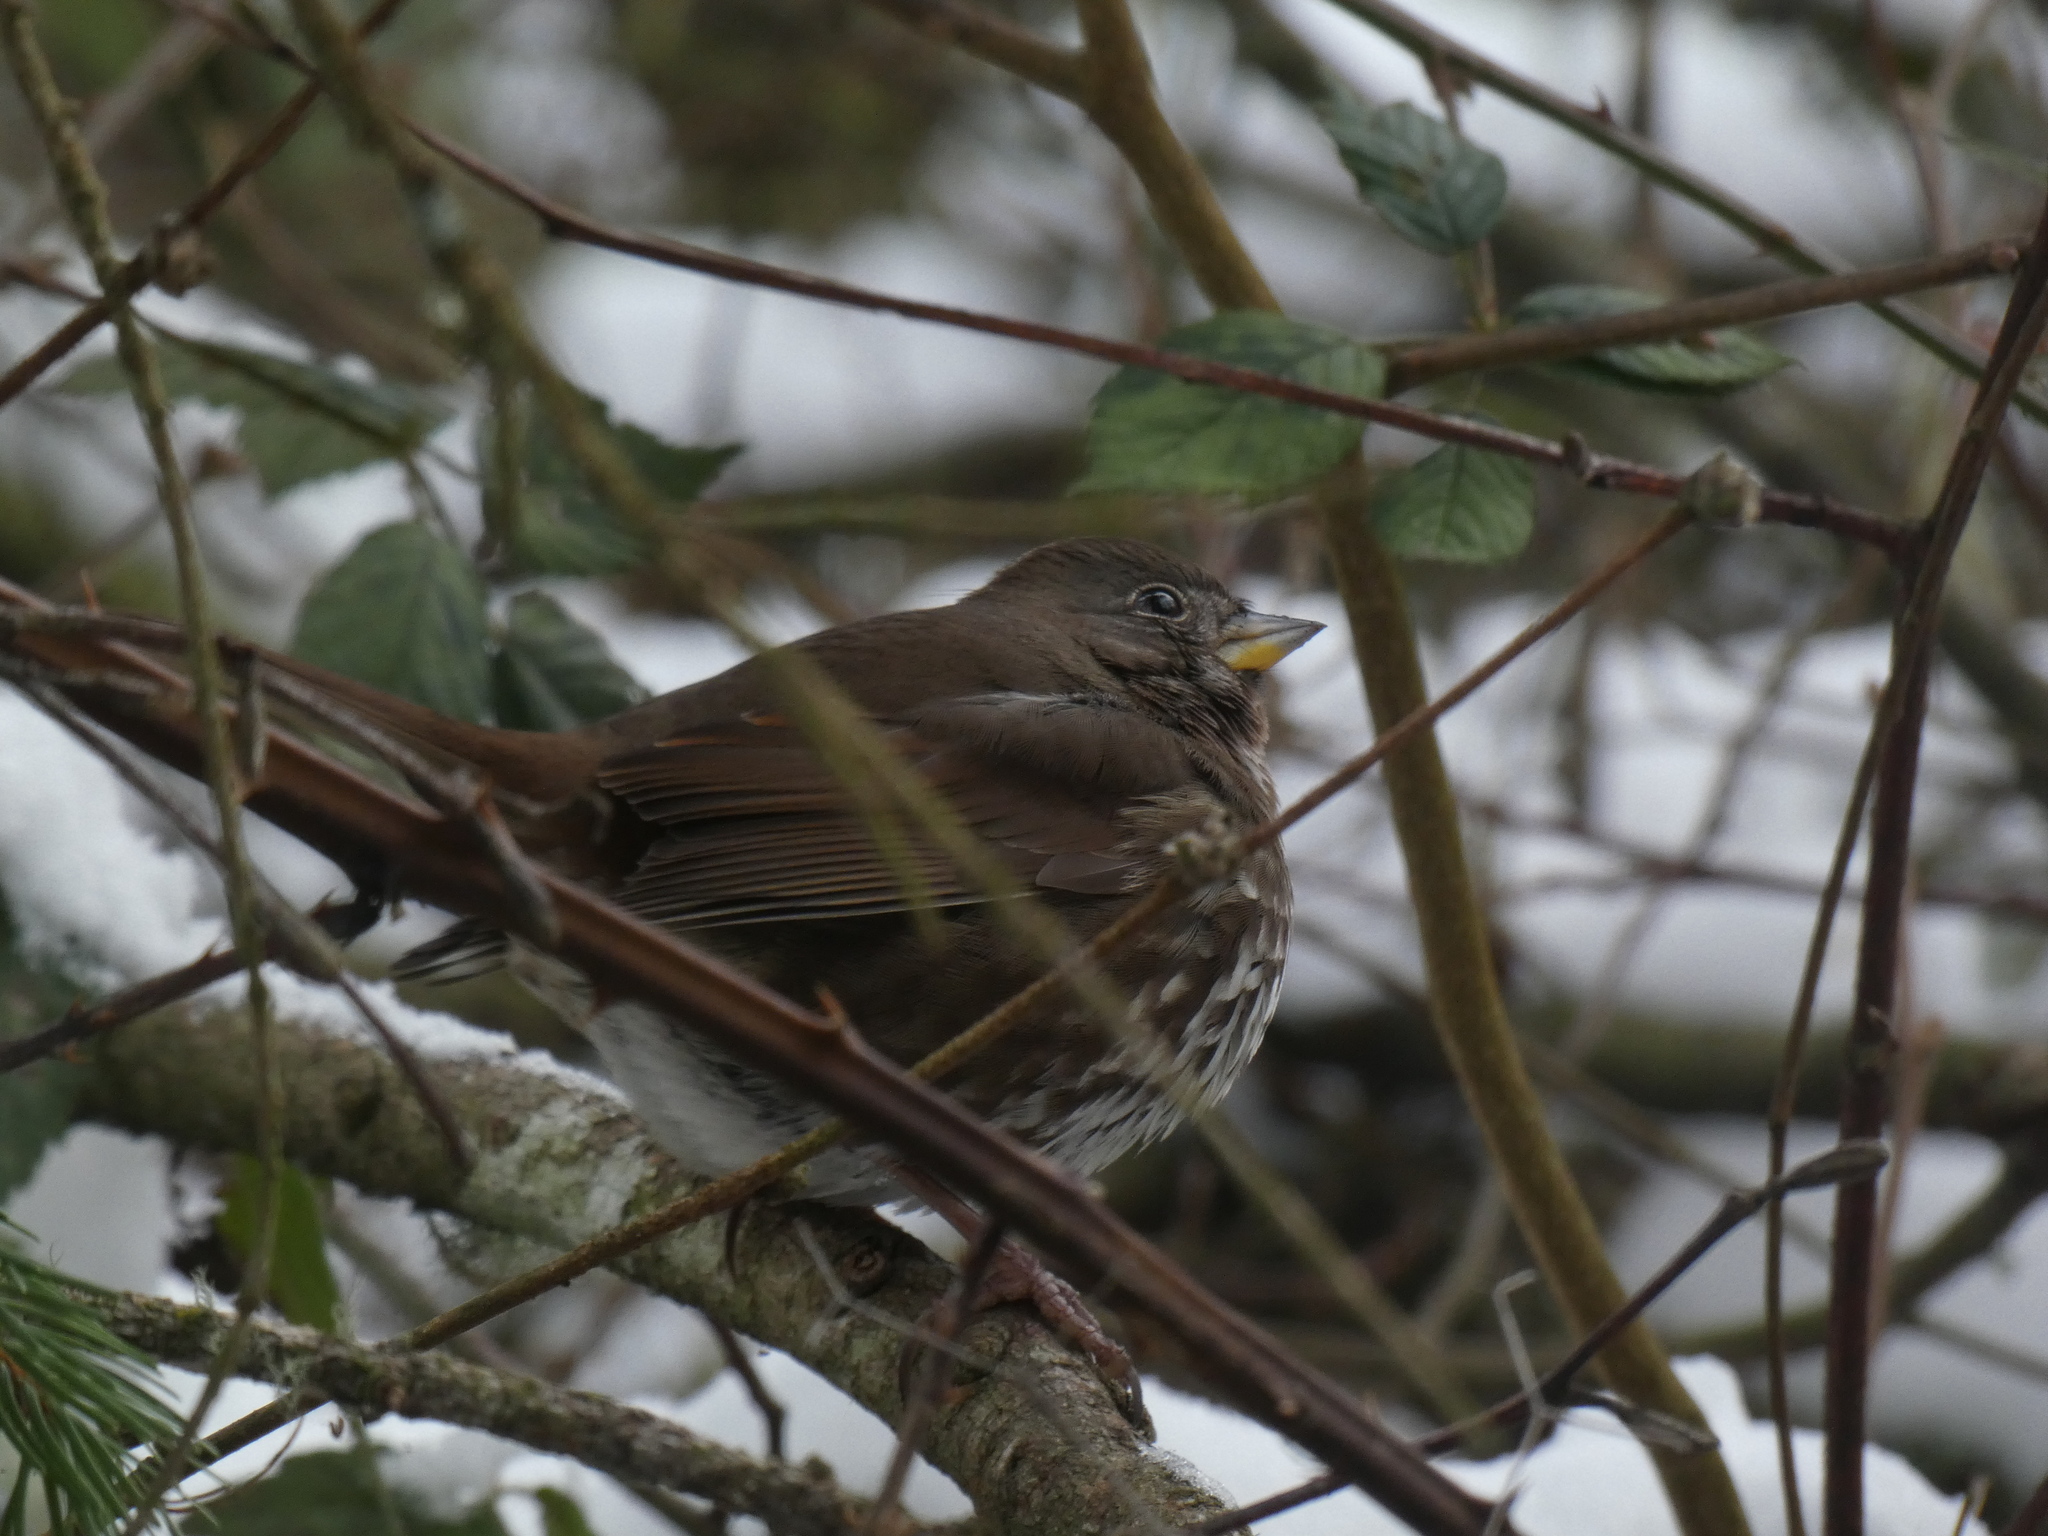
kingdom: Animalia
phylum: Chordata
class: Aves
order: Passeriformes
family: Passerellidae
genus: Passerella
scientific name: Passerella iliaca
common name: Fox sparrow
